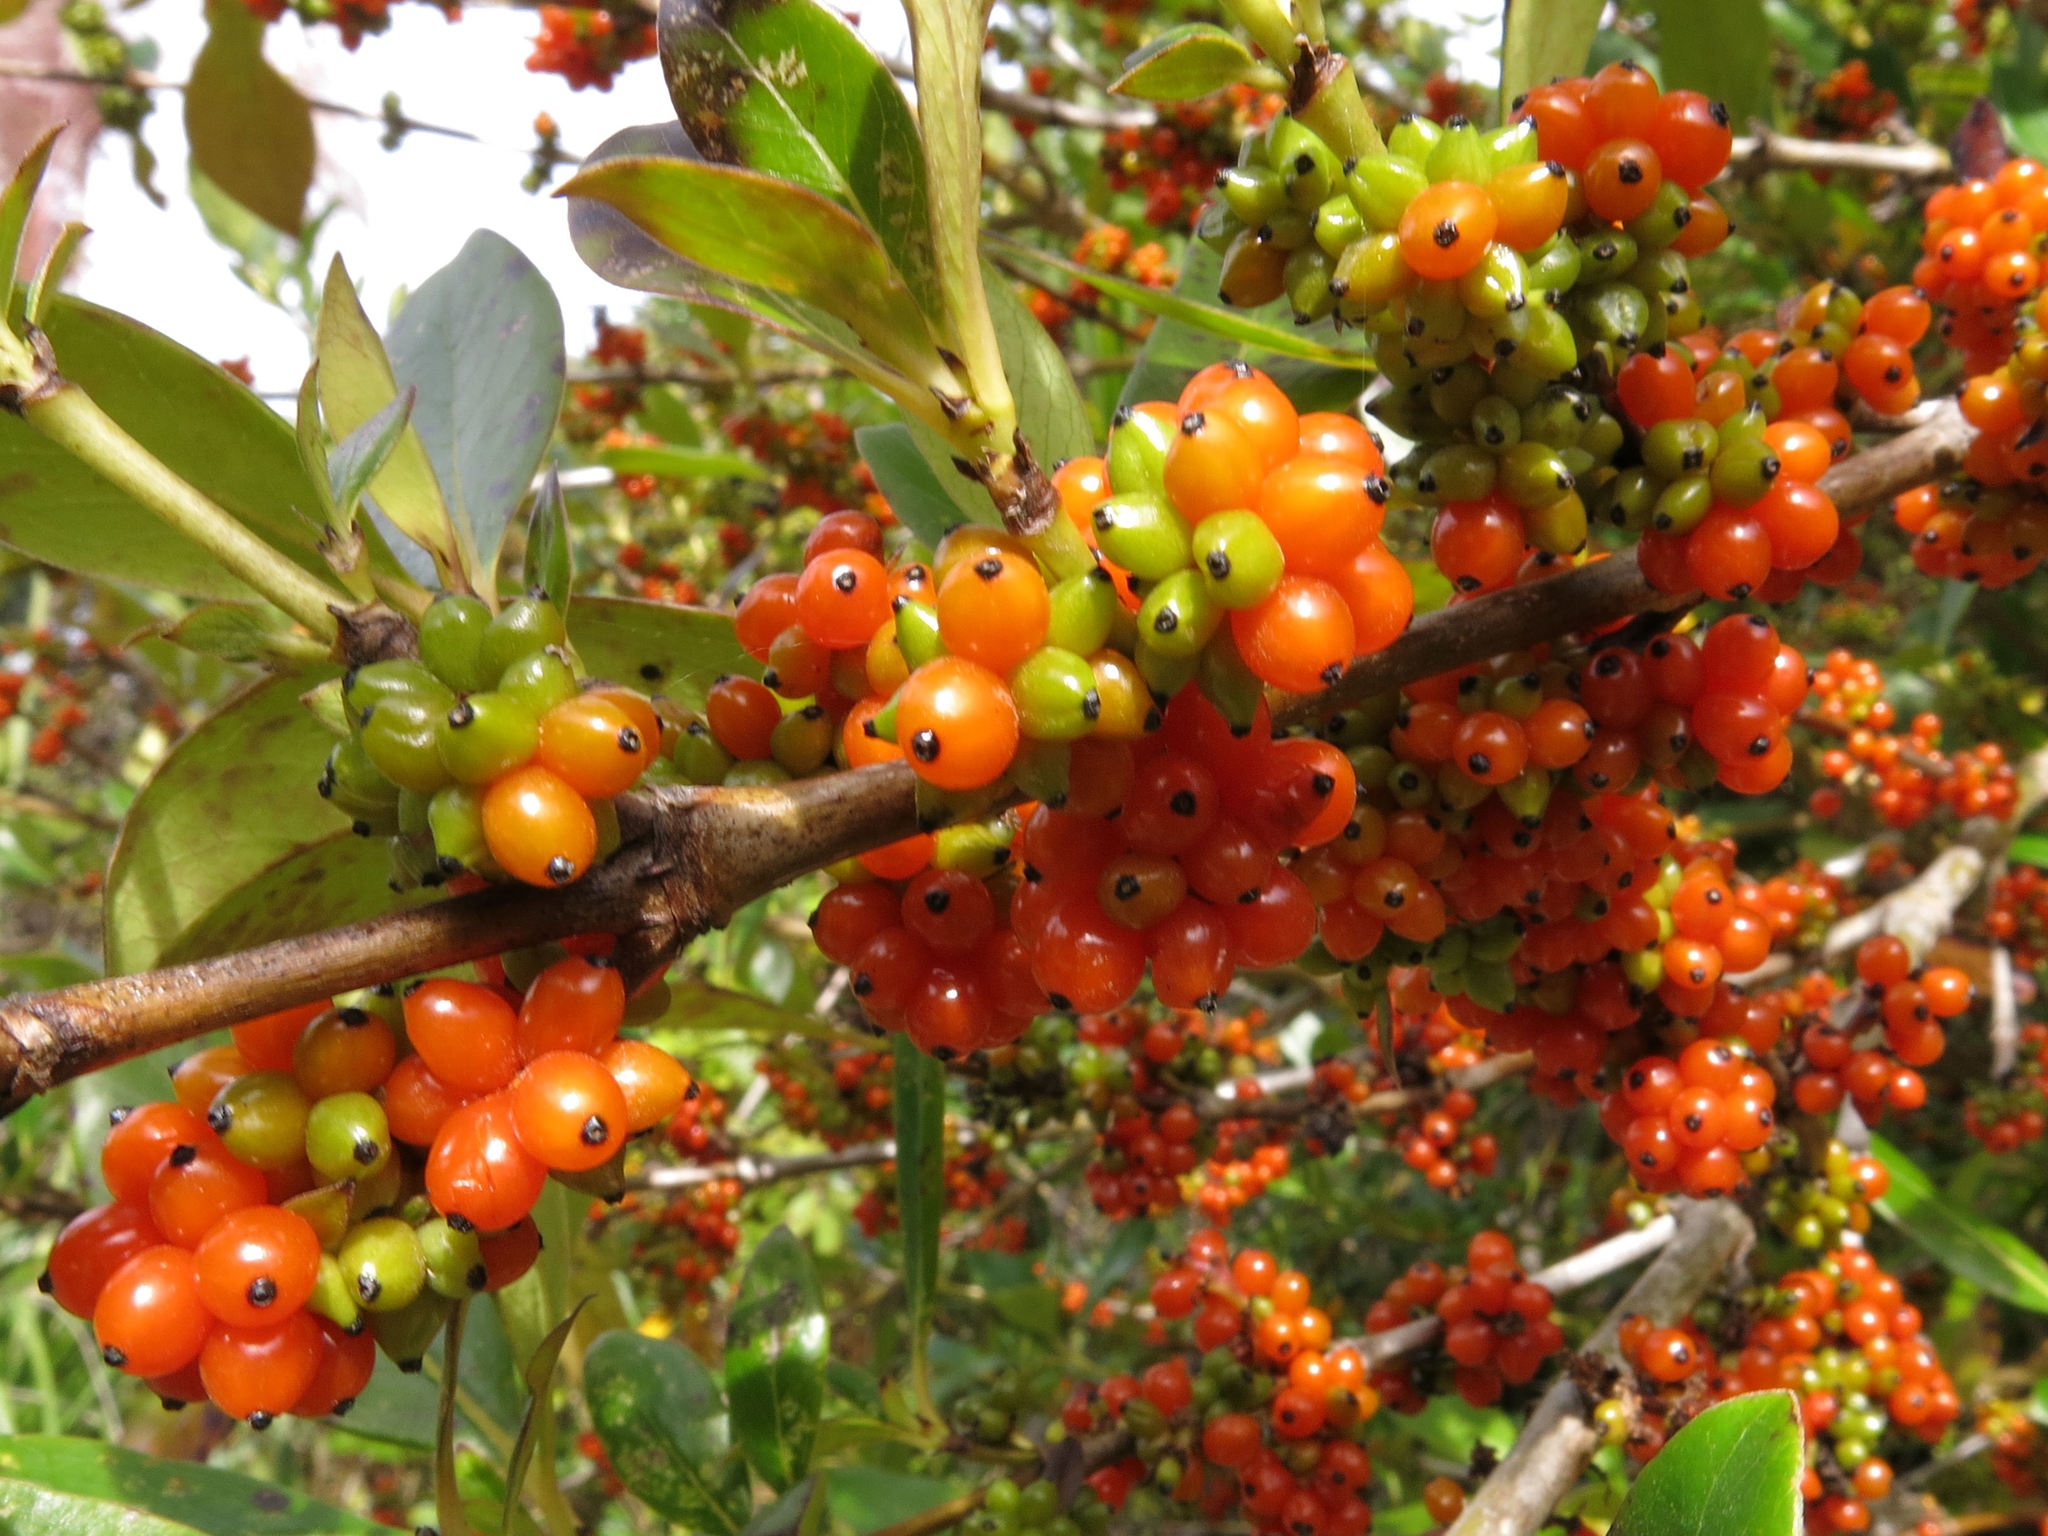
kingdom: Plantae
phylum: Tracheophyta
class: Magnoliopsida
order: Gentianales
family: Rubiaceae
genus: Coprosma
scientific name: Coprosma robusta
